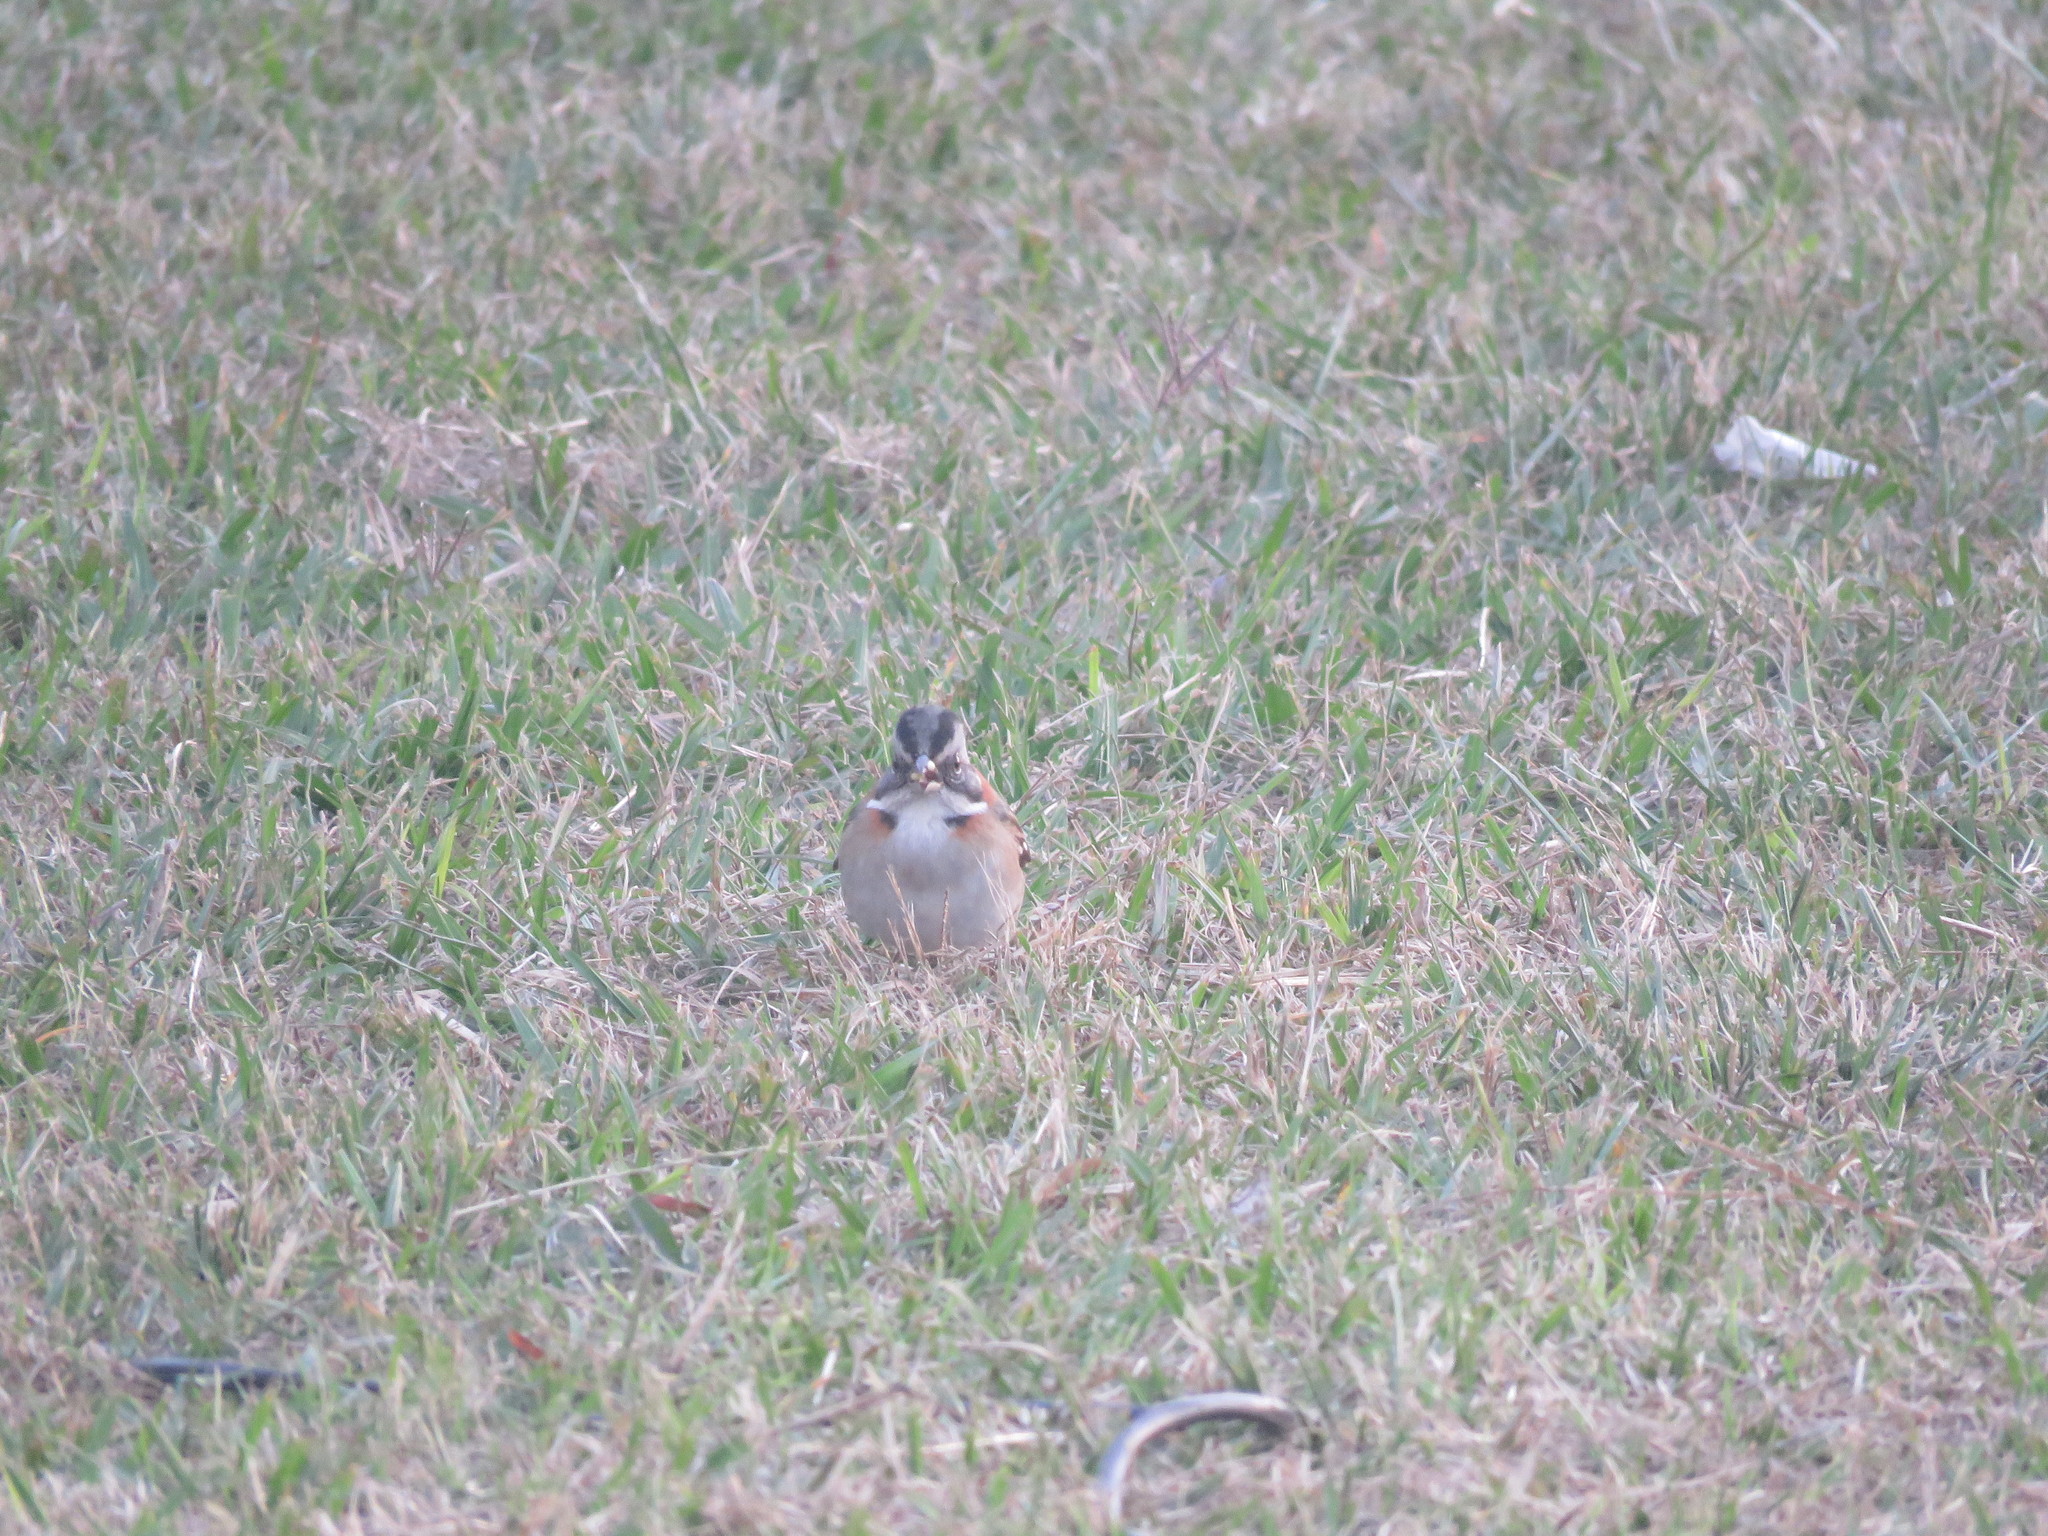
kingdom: Animalia
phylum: Chordata
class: Aves
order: Passeriformes
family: Passerellidae
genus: Zonotrichia
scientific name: Zonotrichia capensis
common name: Rufous-collared sparrow
